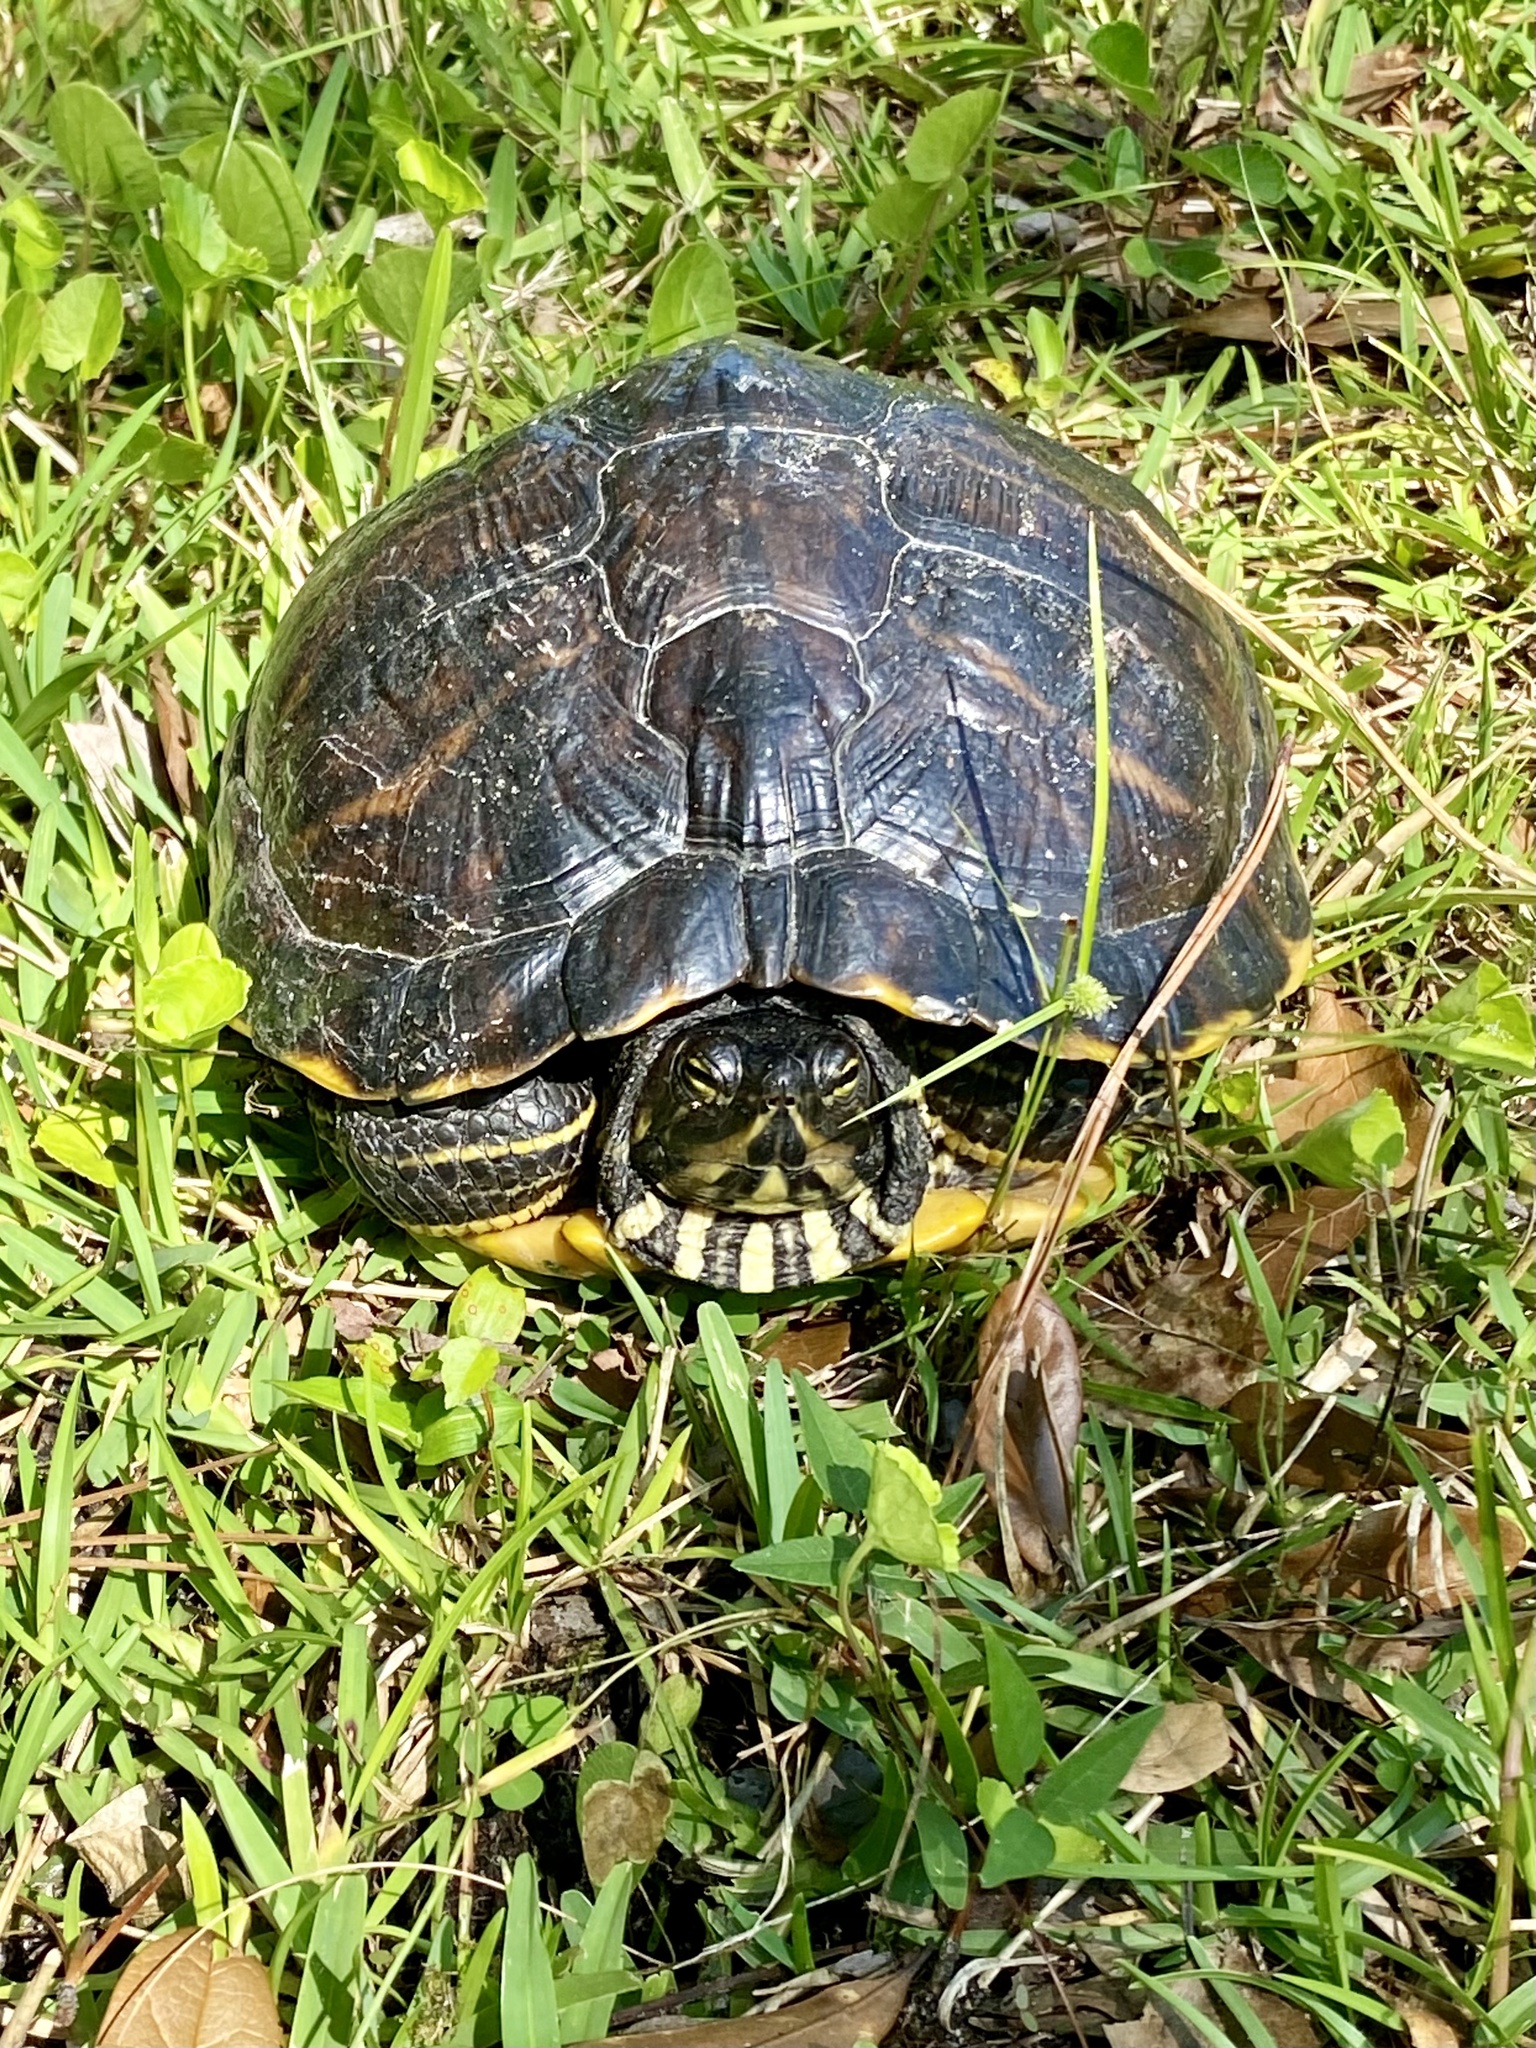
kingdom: Animalia
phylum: Chordata
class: Testudines
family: Emydidae
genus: Trachemys
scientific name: Trachemys scripta
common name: Slider
